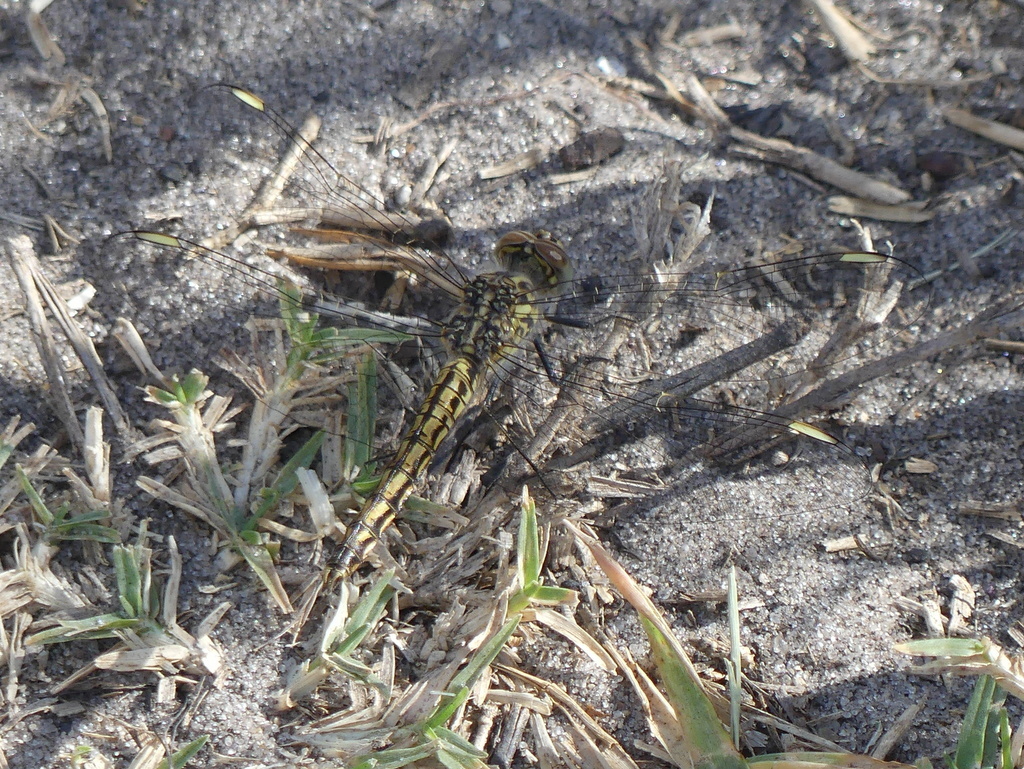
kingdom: Animalia
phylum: Arthropoda
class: Insecta
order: Odonata
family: Libellulidae
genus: Brachythemis
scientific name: Brachythemis leucosticta
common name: Banded groundling
